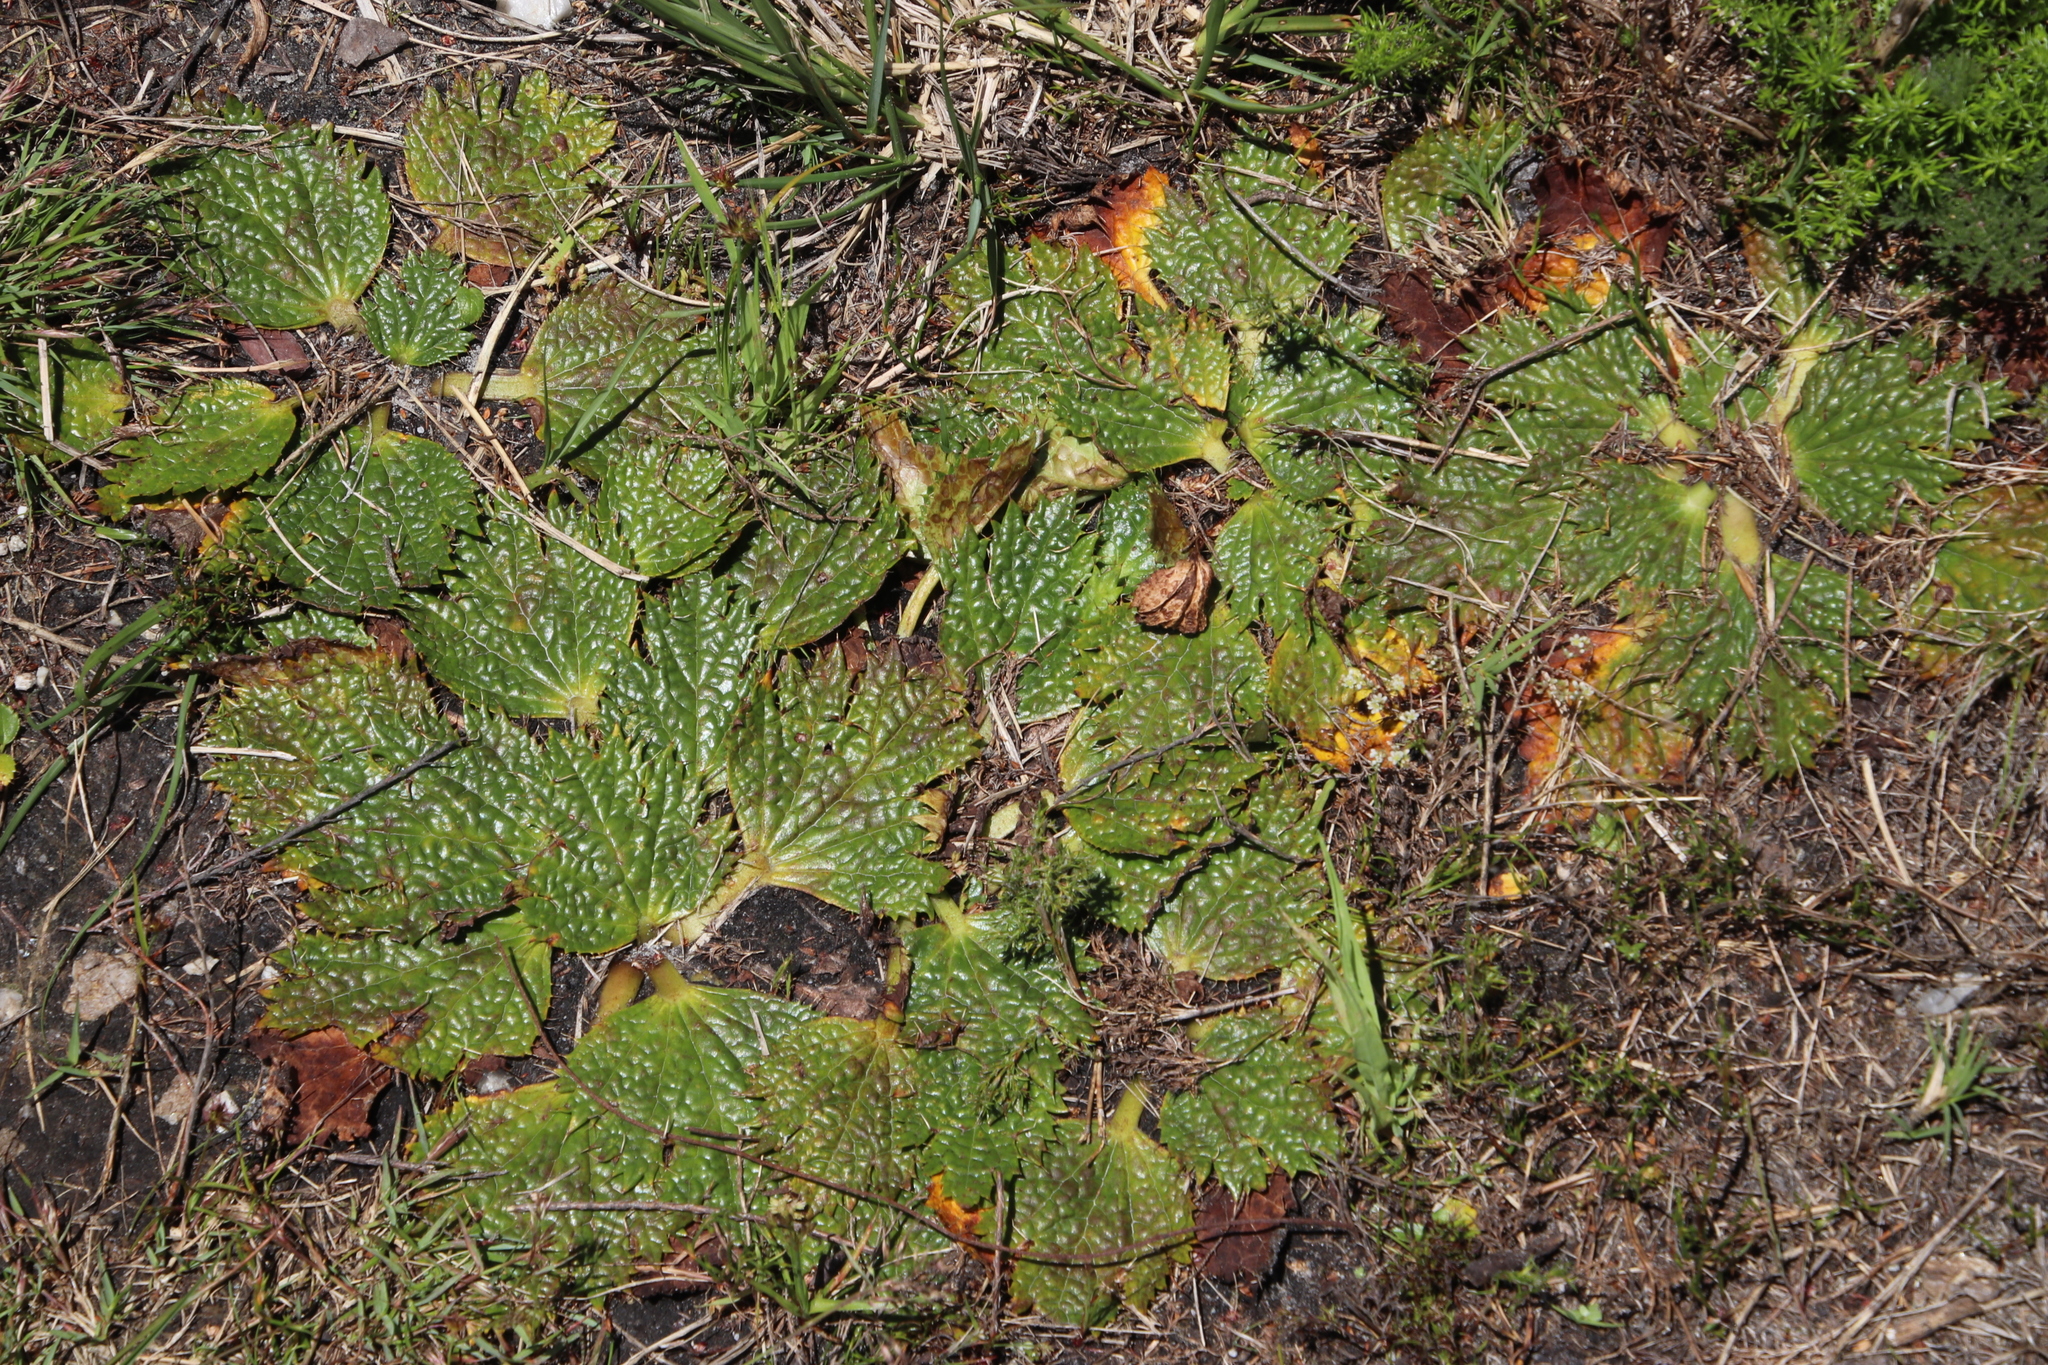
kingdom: Plantae
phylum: Tracheophyta
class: Magnoliopsida
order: Apiales
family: Apiaceae
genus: Arctopus
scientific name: Arctopus echinatus
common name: Platdoring
